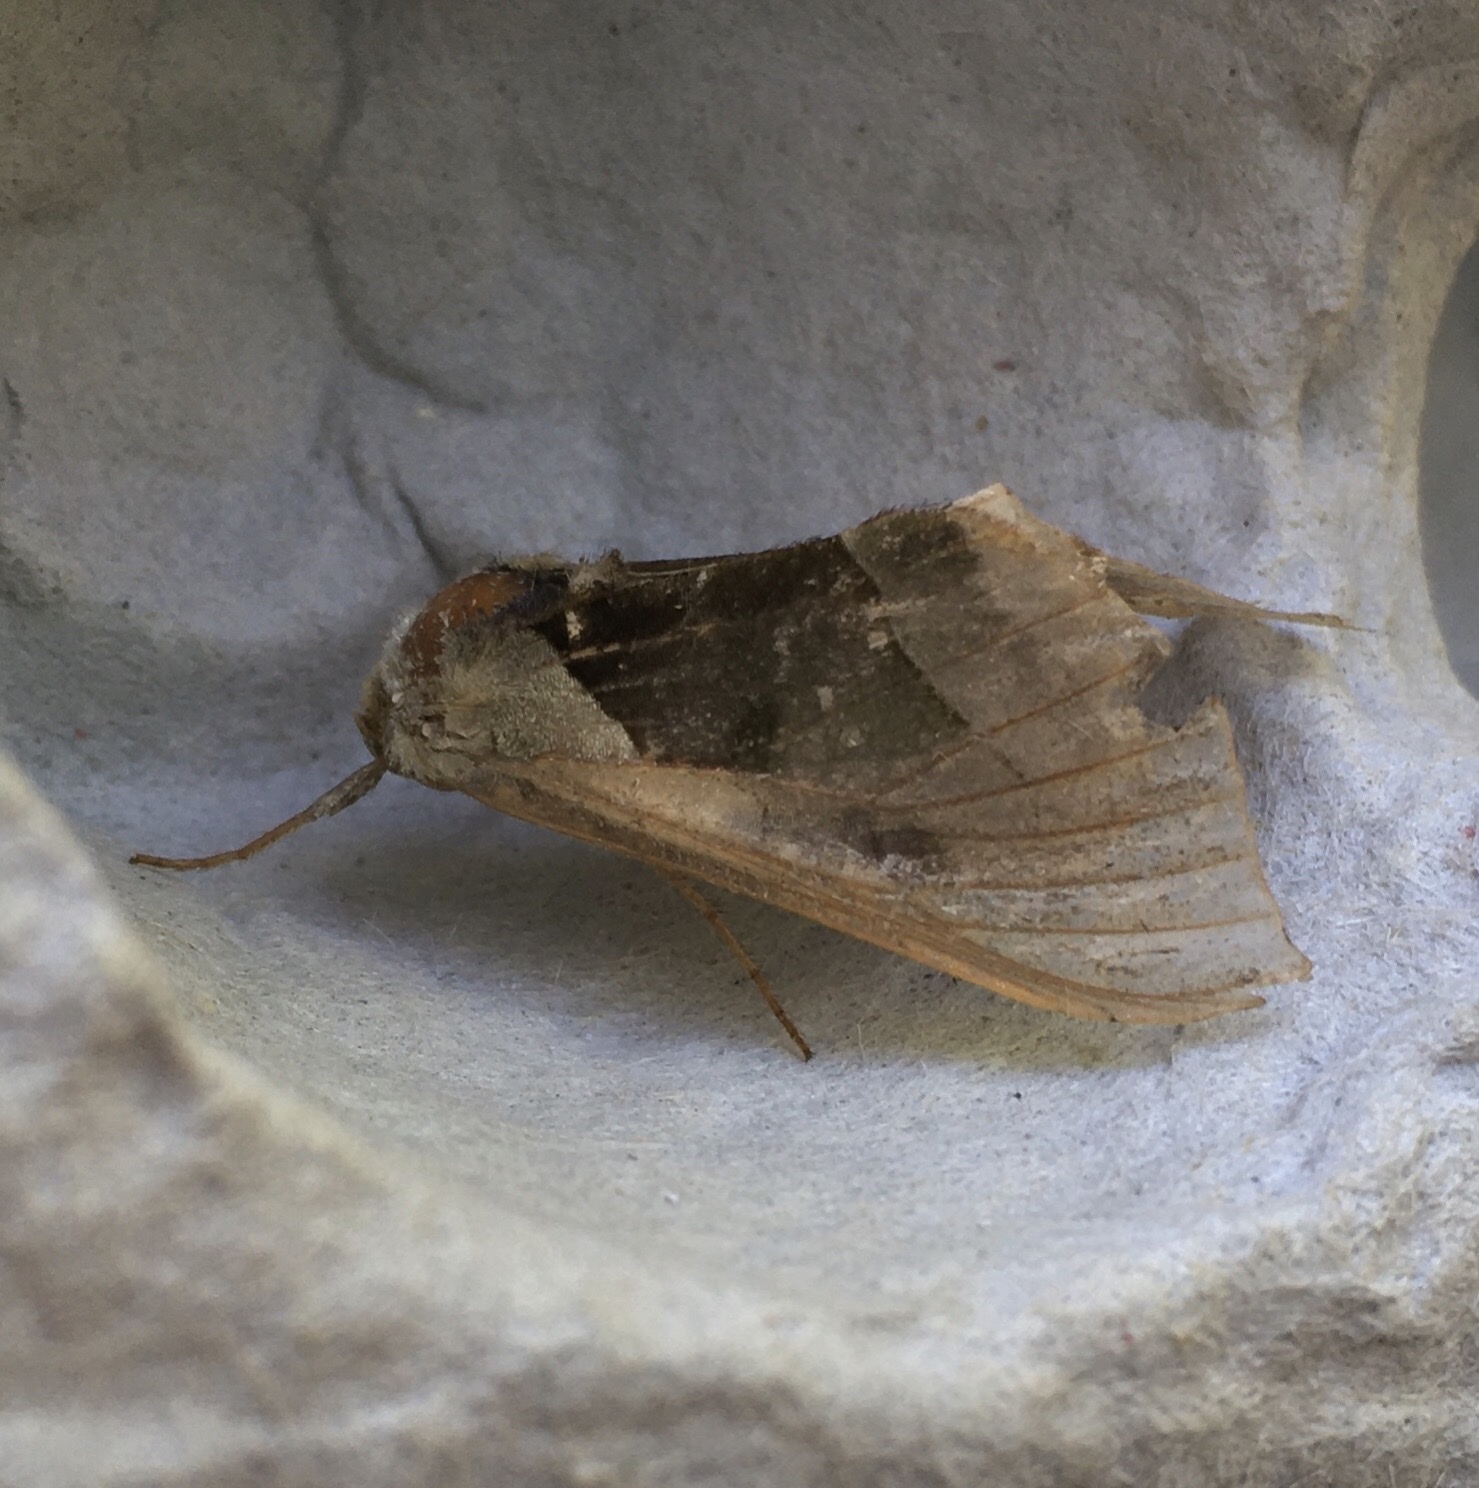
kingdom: Animalia
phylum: Arthropoda
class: Insecta
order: Lepidoptera
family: Noctuidae
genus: Diachrysia
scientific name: Diachrysia balluca
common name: Green-patched looper moth
